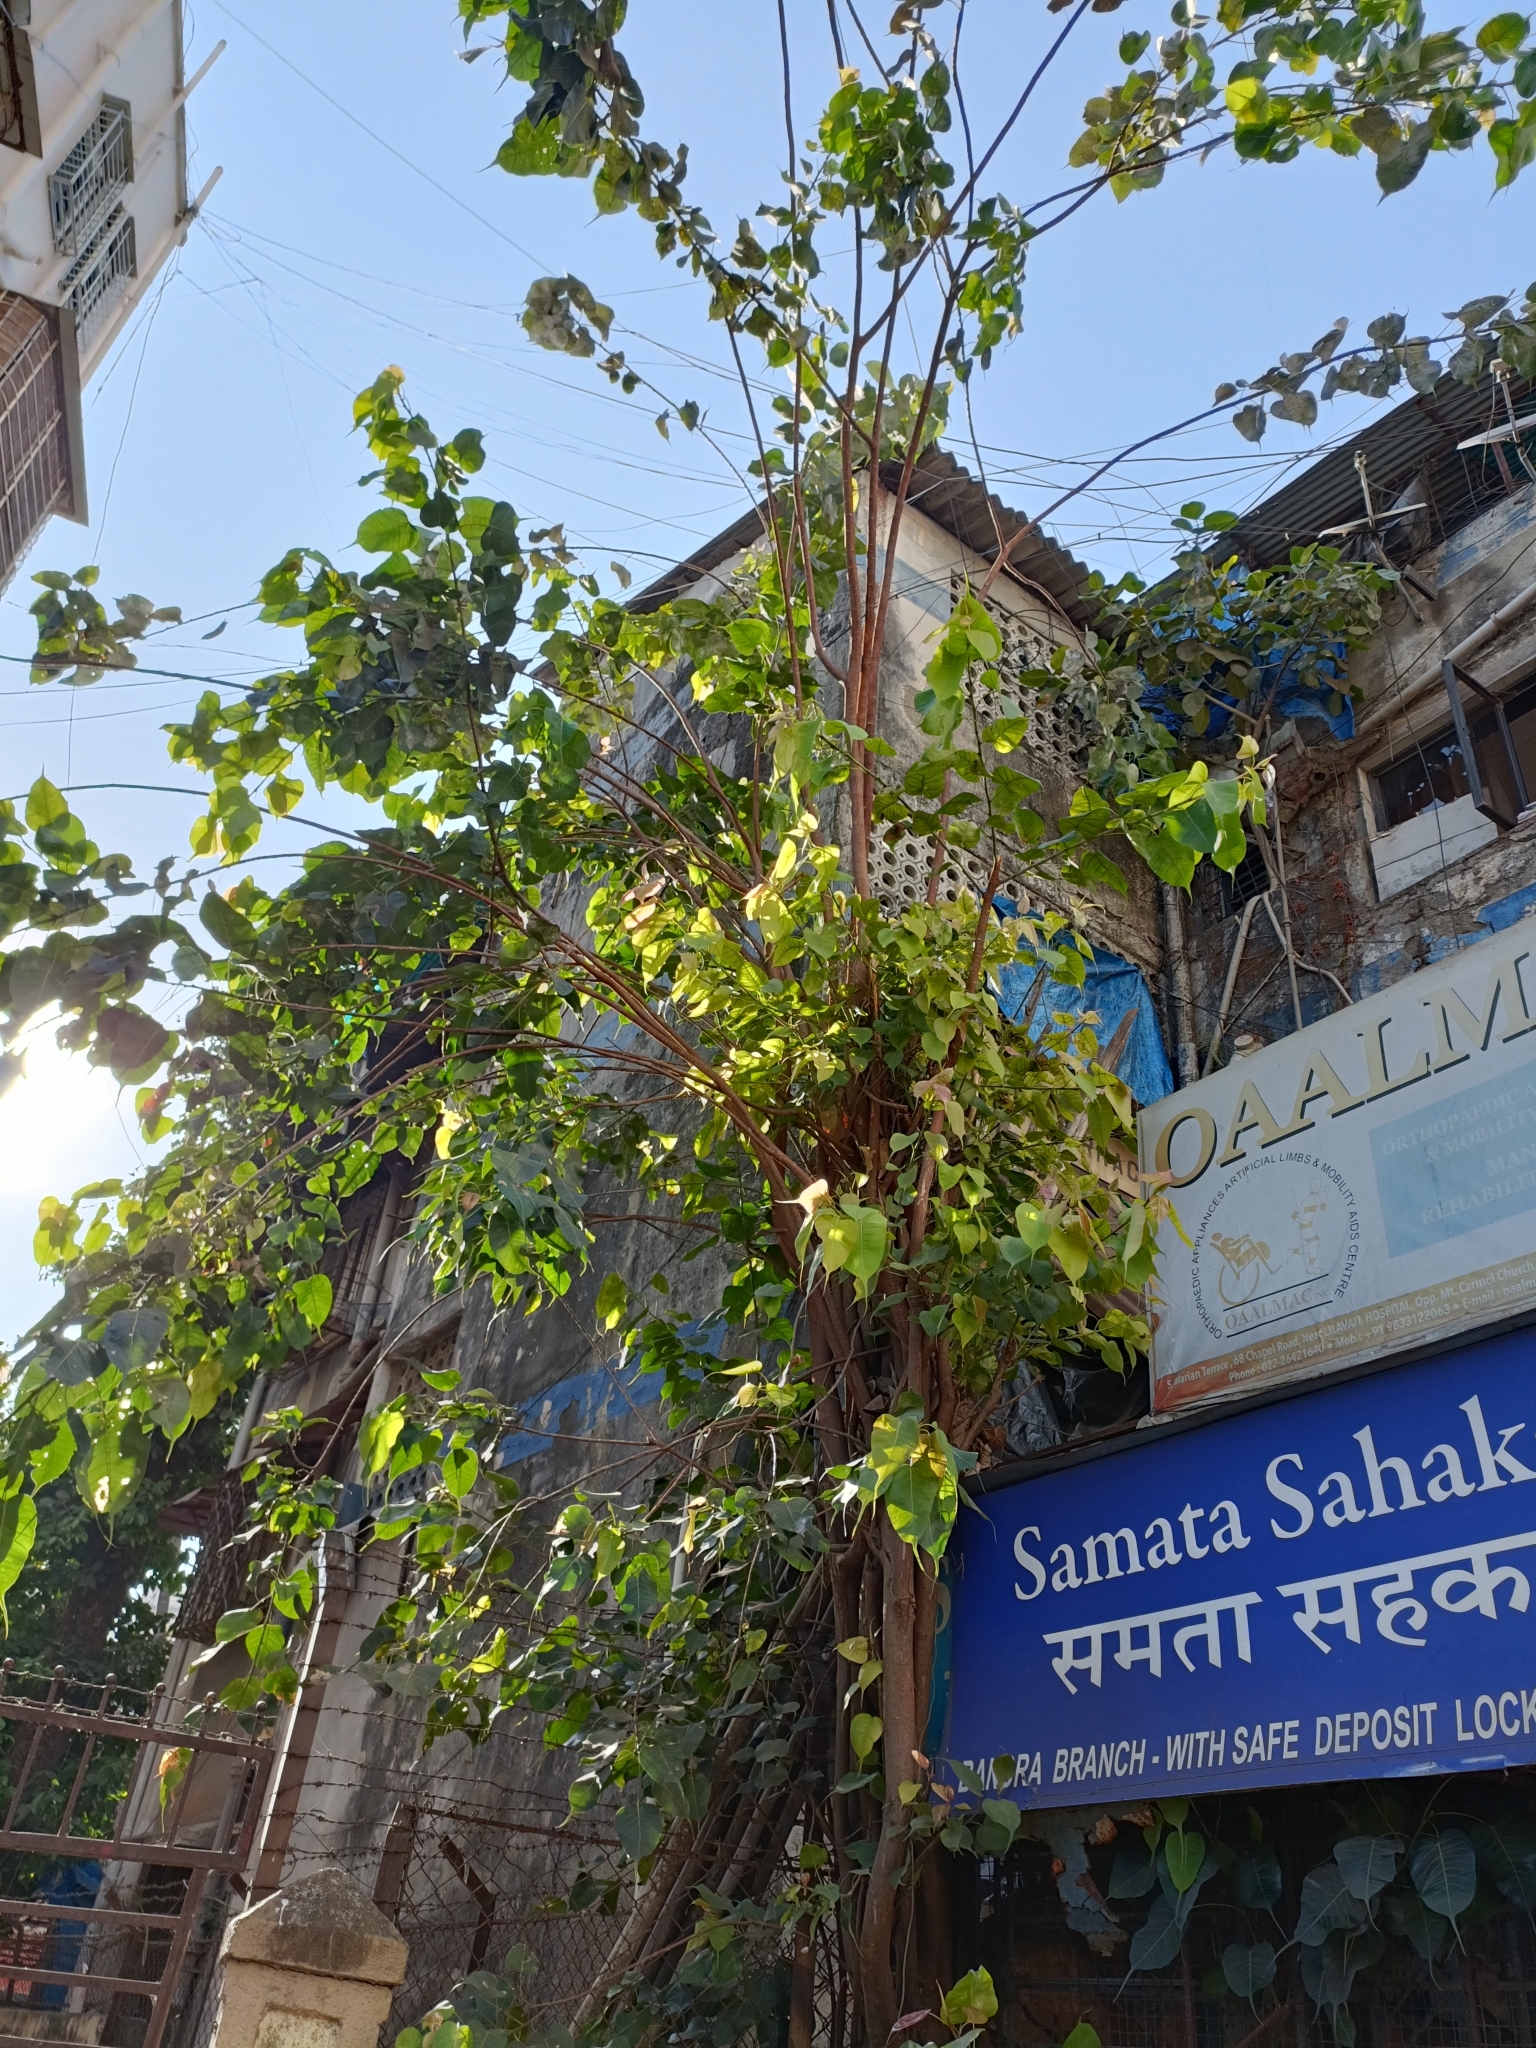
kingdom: Plantae
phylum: Tracheophyta
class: Magnoliopsida
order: Rosales
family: Moraceae
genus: Ficus
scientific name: Ficus religiosa
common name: Bodhi tree
